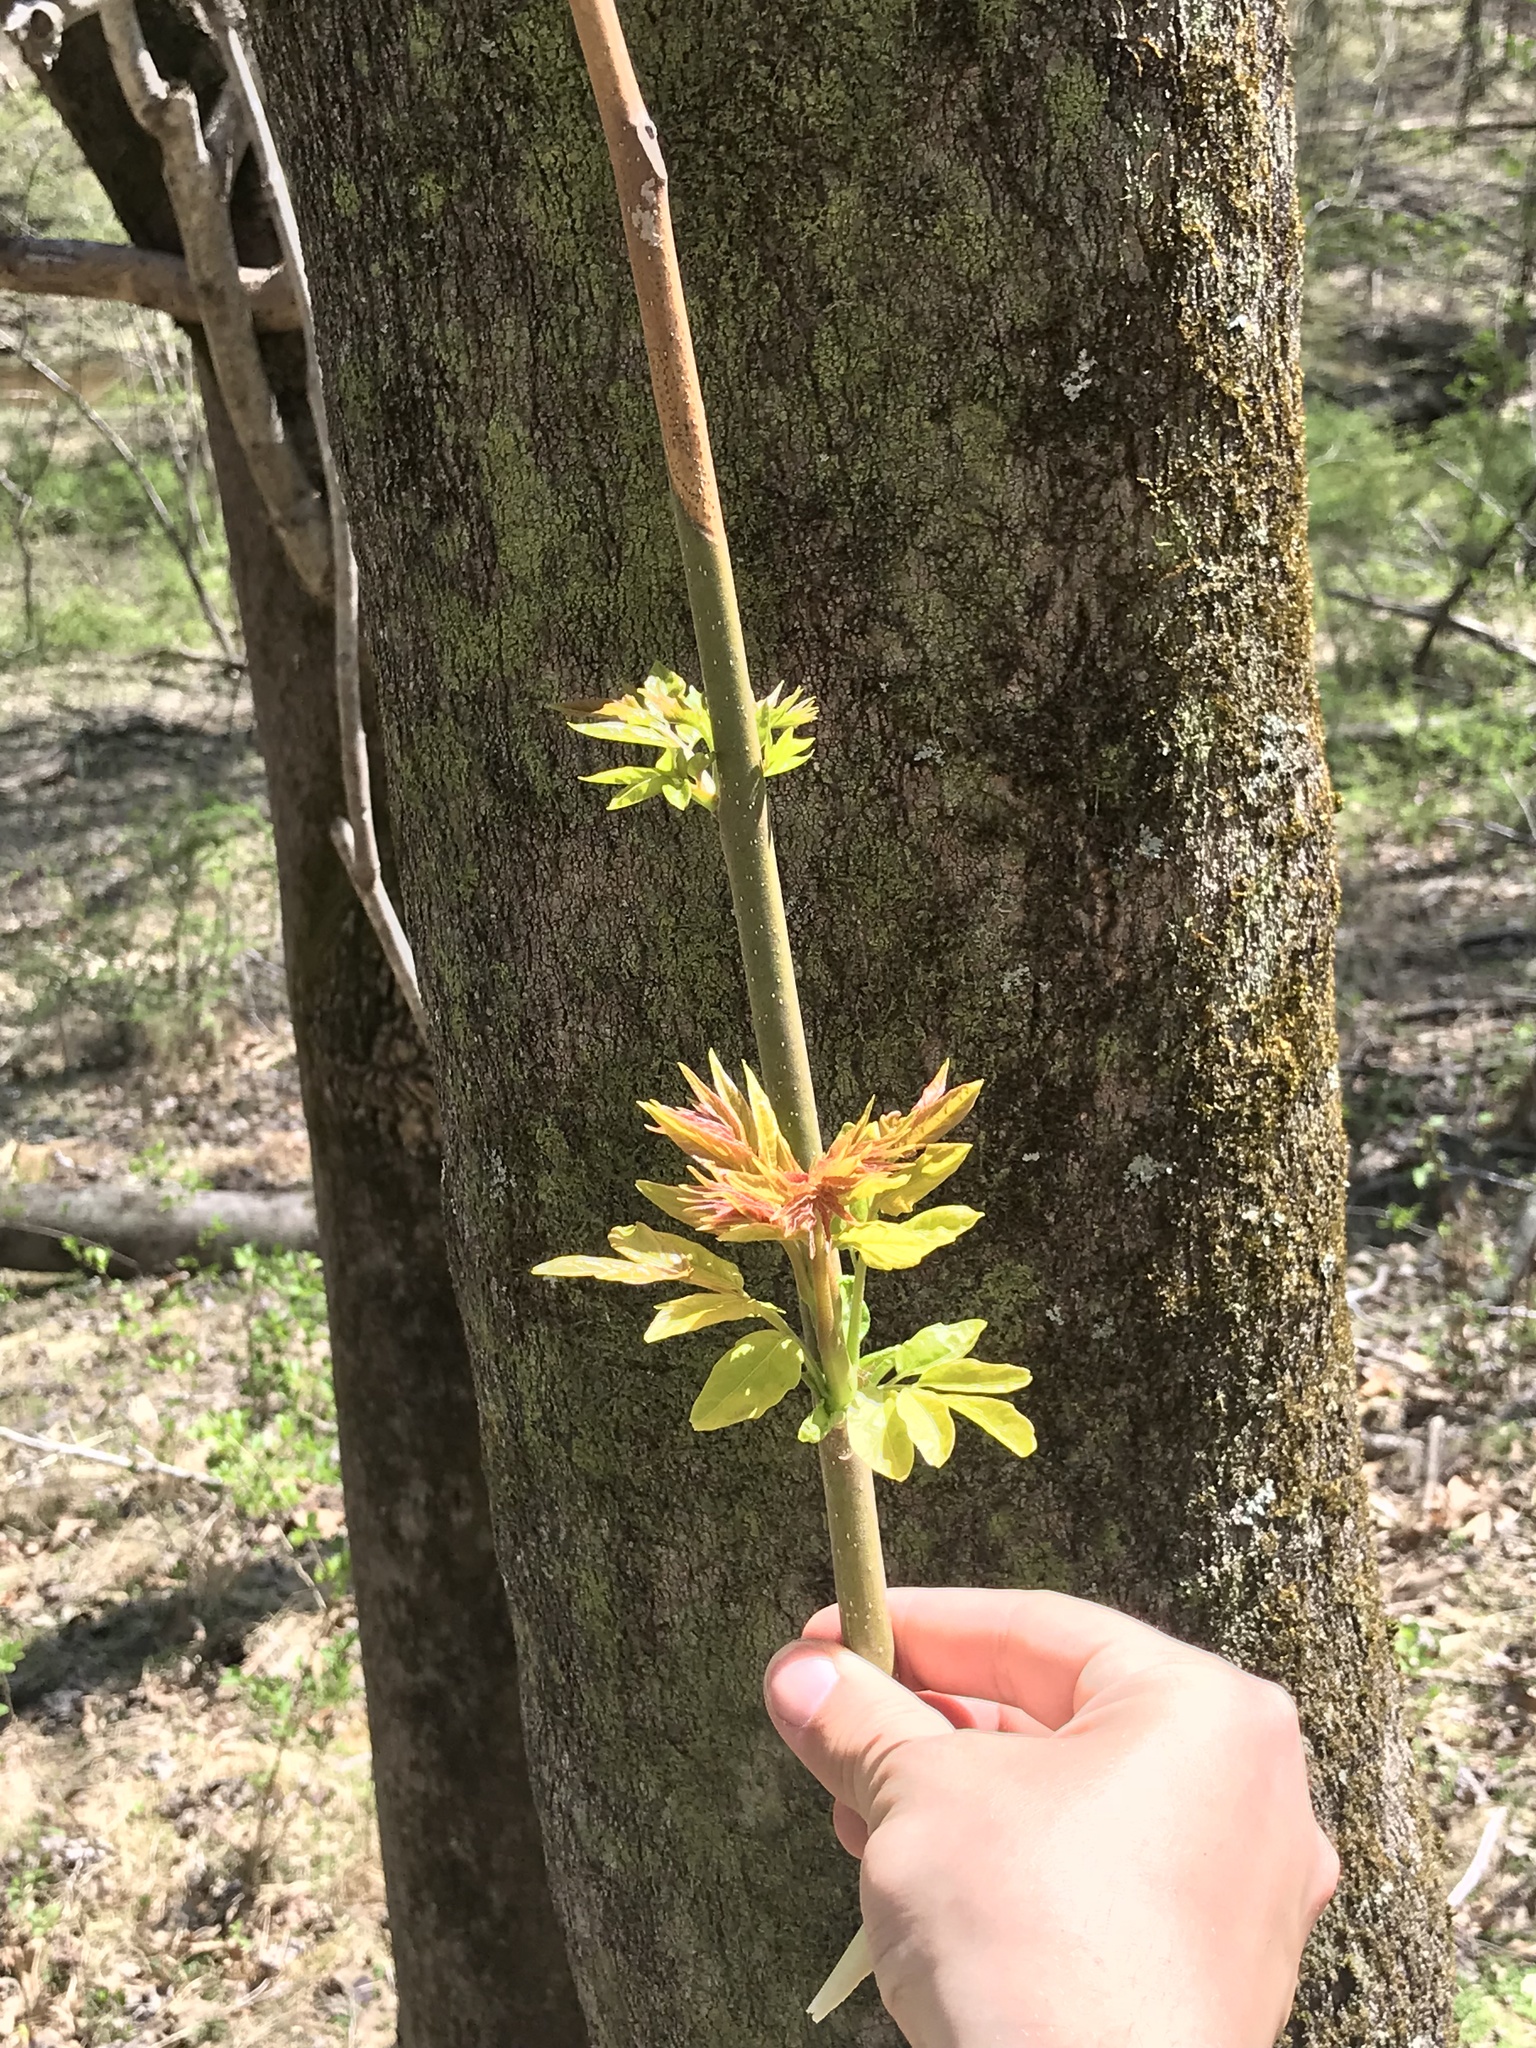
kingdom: Plantae
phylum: Tracheophyta
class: Magnoliopsida
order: Sapindales
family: Simaroubaceae
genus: Ailanthus
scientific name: Ailanthus altissima
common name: Tree-of-heaven
